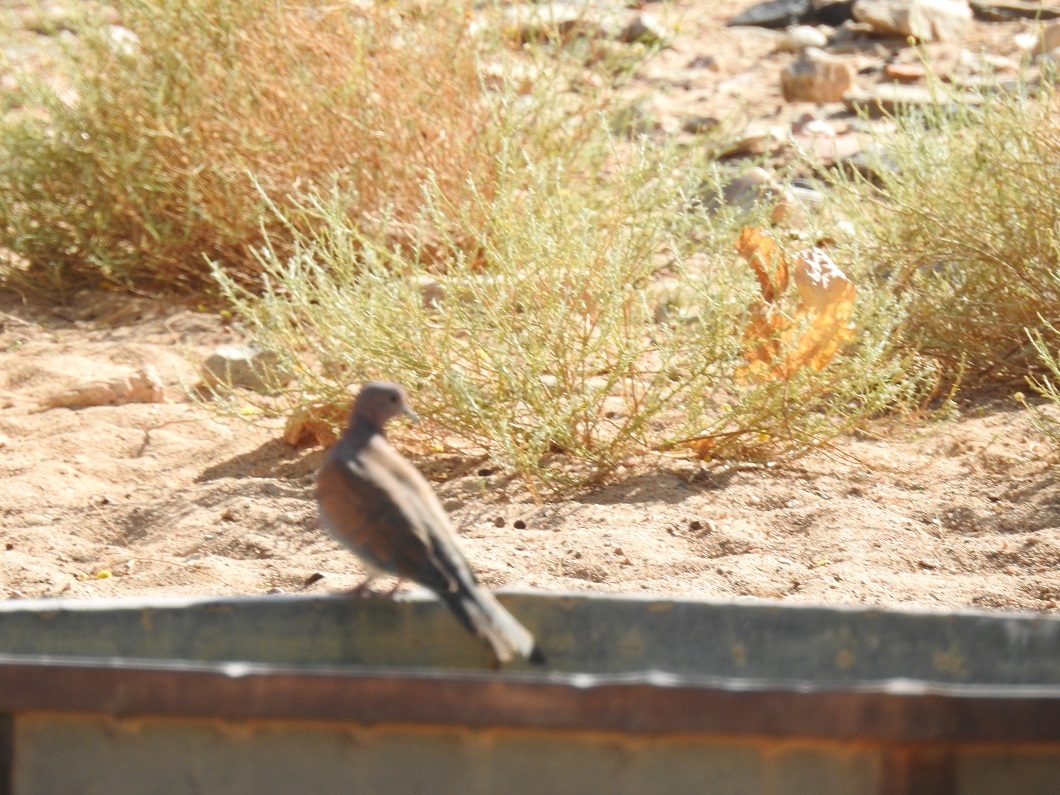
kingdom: Animalia
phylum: Chordata
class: Aves
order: Columbiformes
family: Columbidae
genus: Spilopelia
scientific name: Spilopelia senegalensis
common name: Laughing dove
